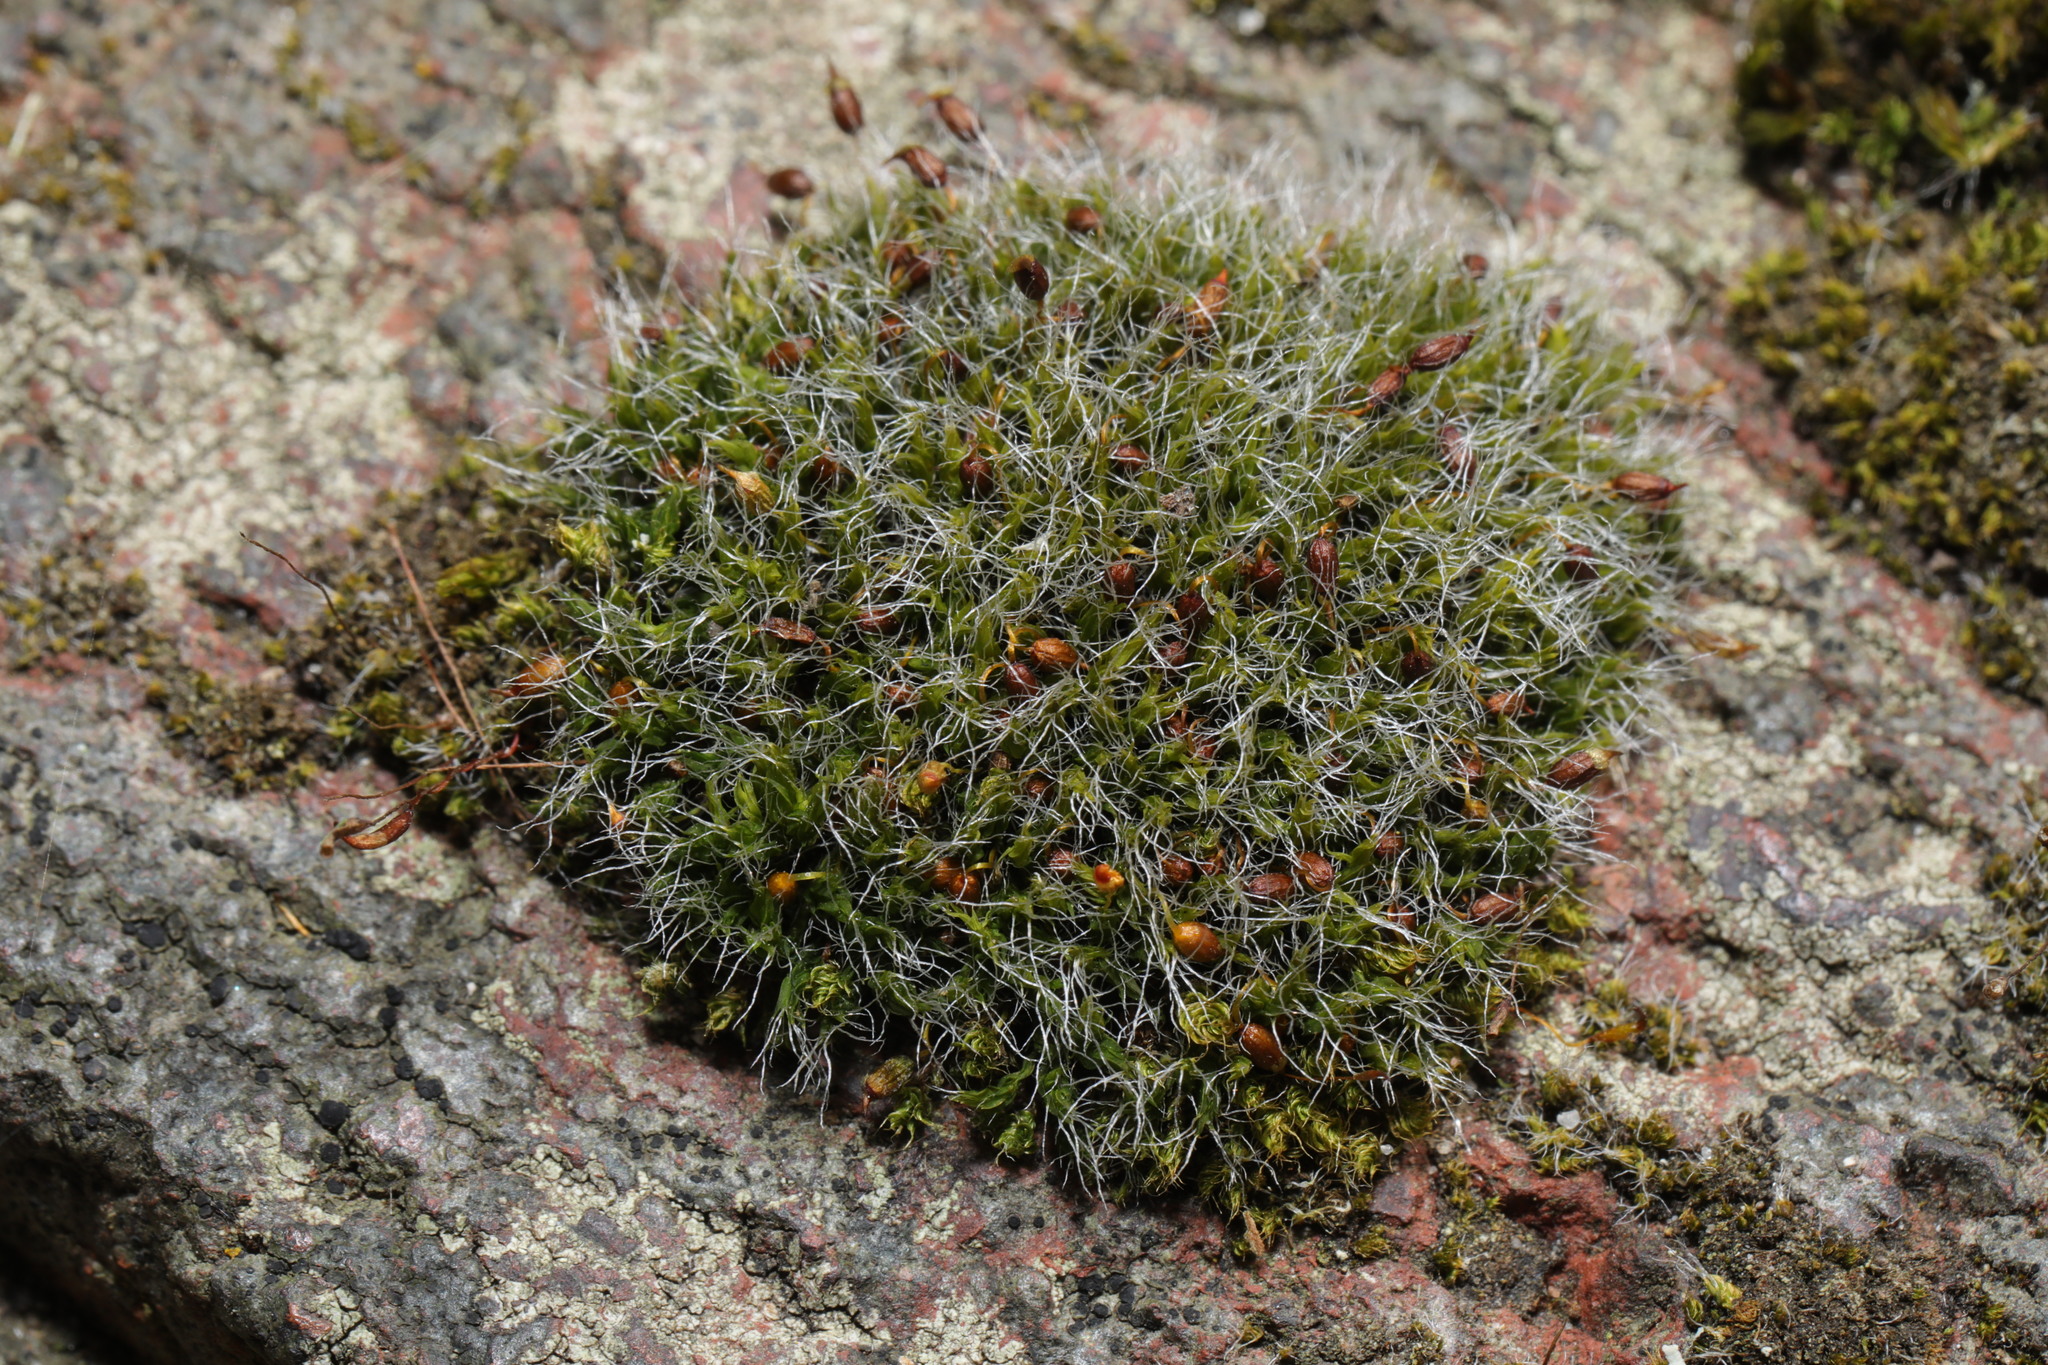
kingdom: Plantae
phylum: Bryophyta
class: Bryopsida
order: Grimmiales
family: Grimmiaceae
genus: Grimmia
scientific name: Grimmia pulvinata
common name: Grey-cushioned grimmia
